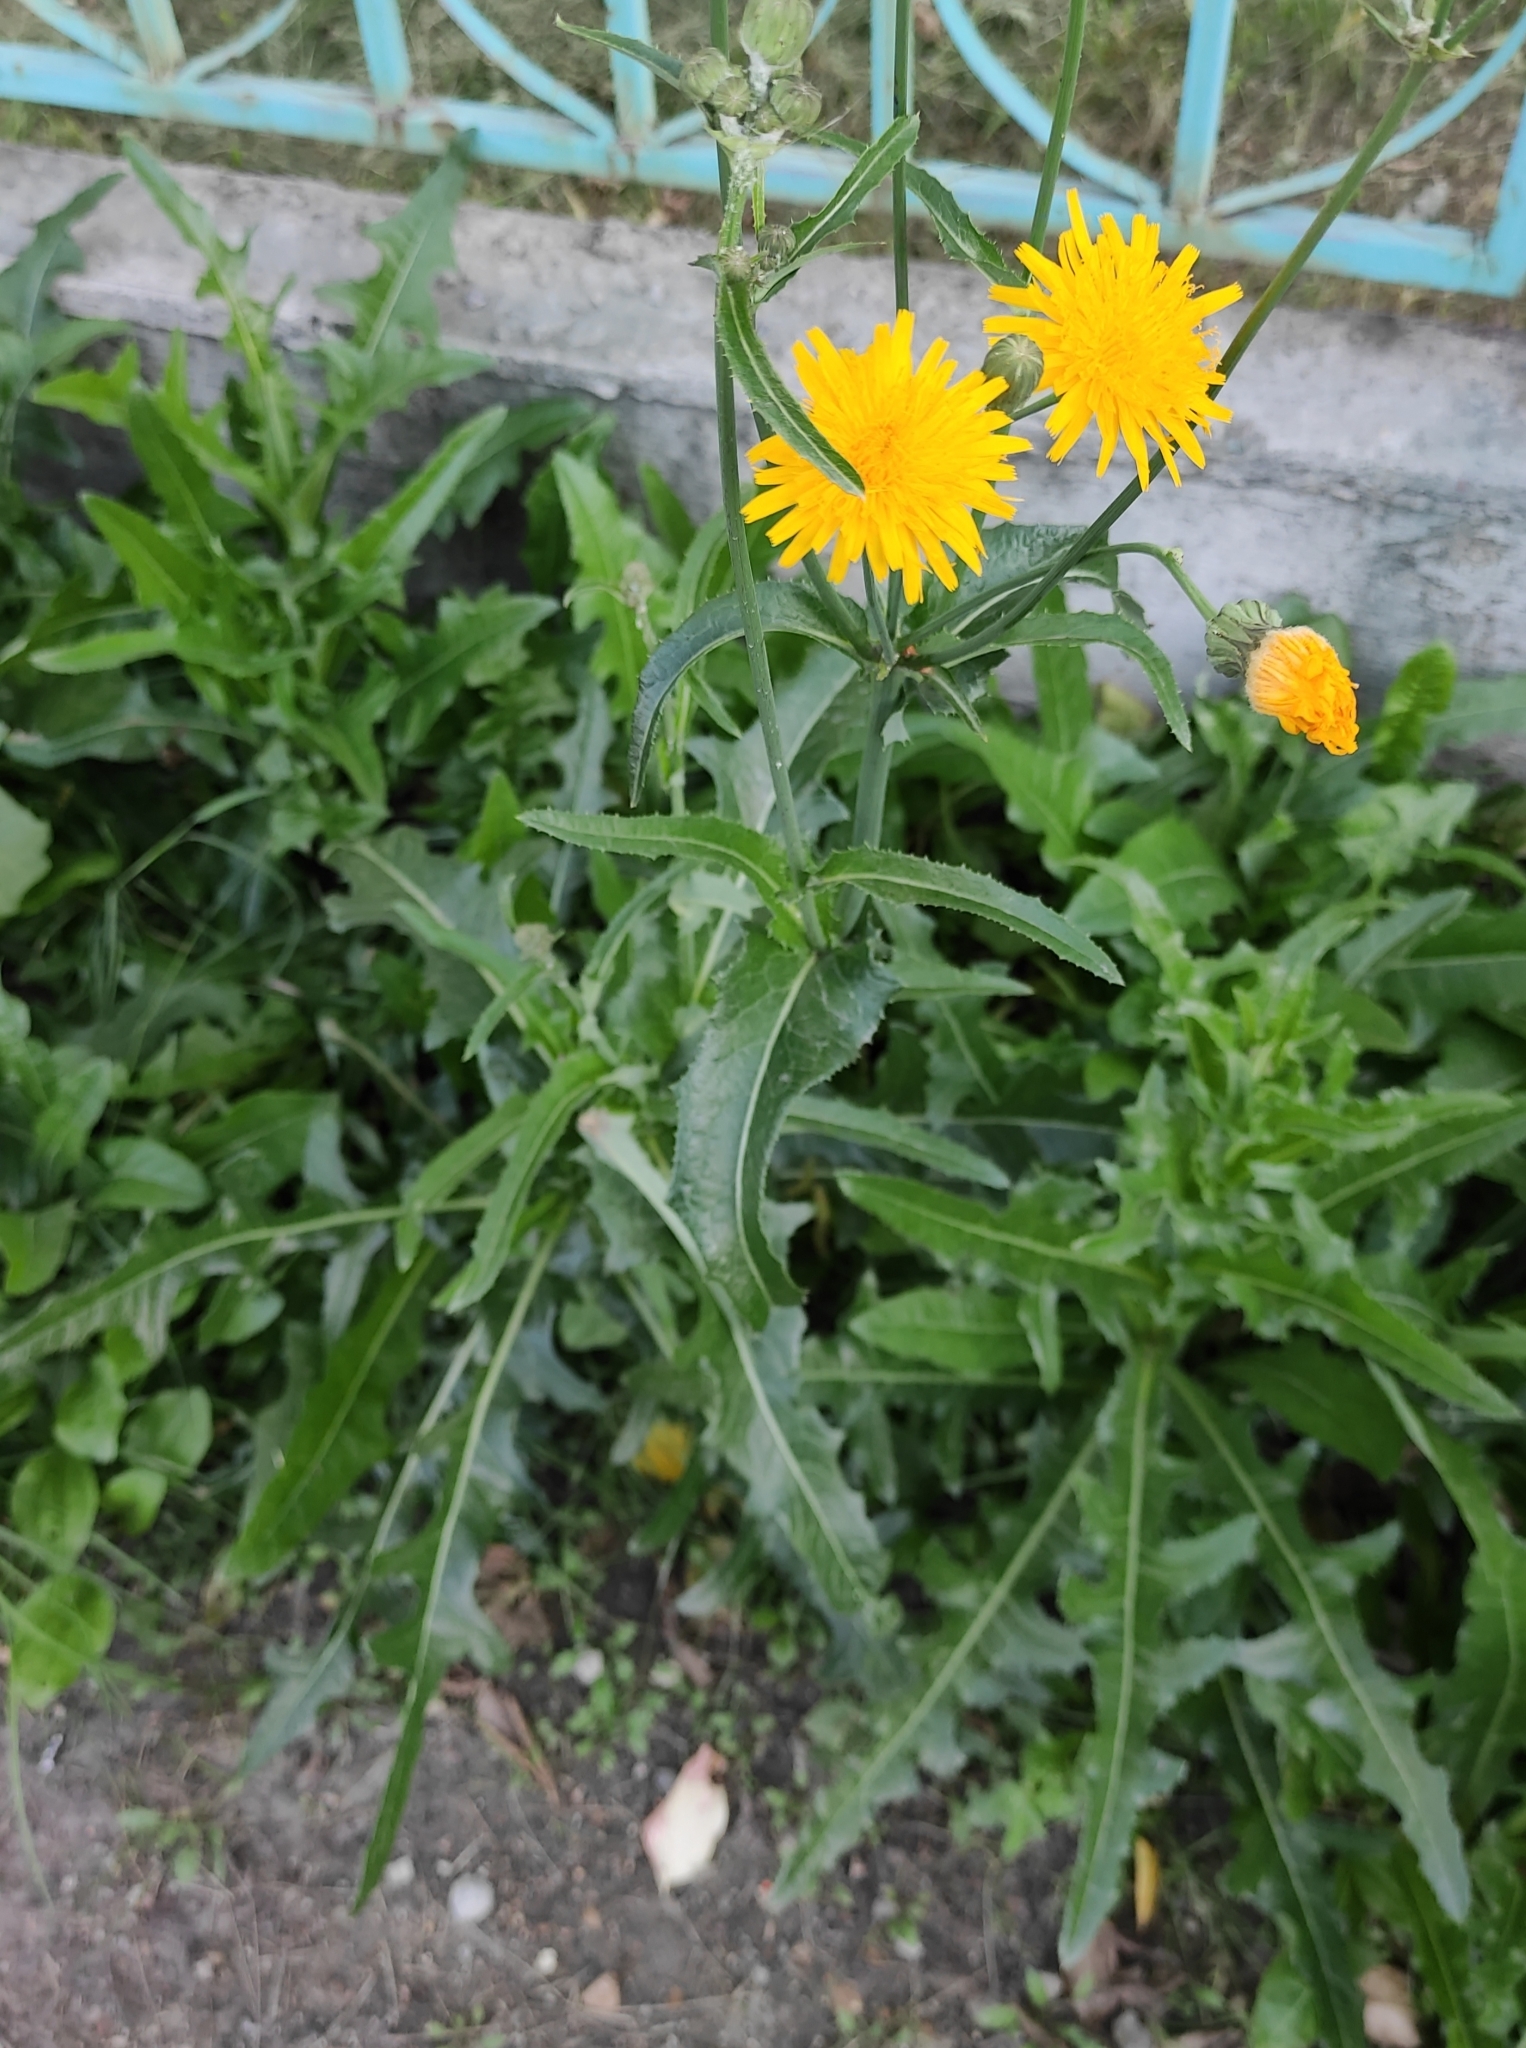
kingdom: Plantae
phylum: Tracheophyta
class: Magnoliopsida
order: Asterales
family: Asteraceae
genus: Sonchus
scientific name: Sonchus arvensis
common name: Perennial sow-thistle
